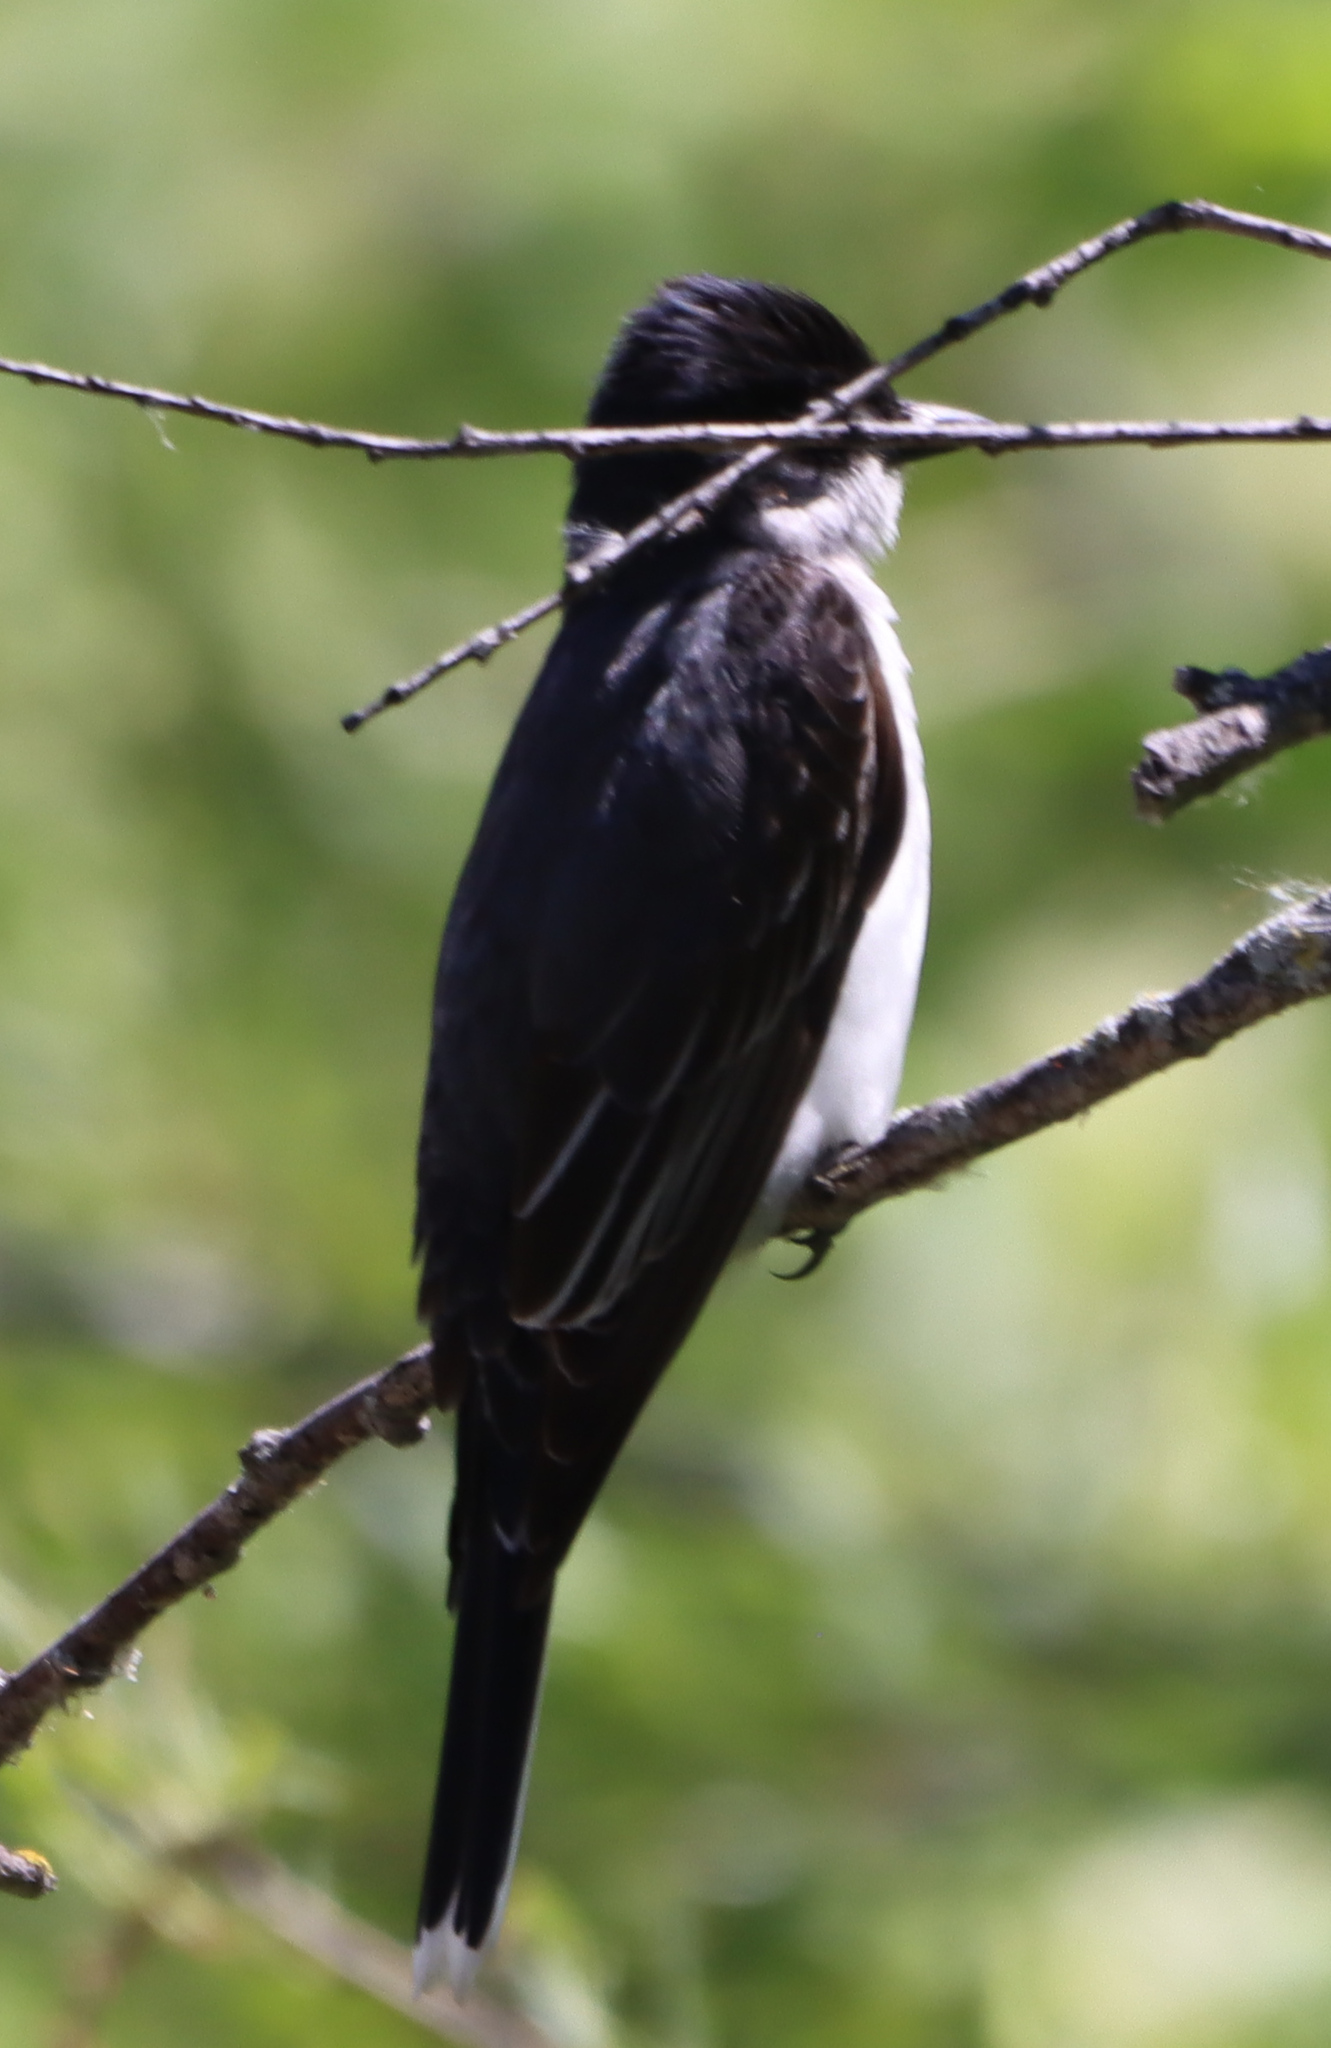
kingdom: Animalia
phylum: Chordata
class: Aves
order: Passeriformes
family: Tyrannidae
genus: Tyrannus
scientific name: Tyrannus tyrannus
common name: Eastern kingbird
